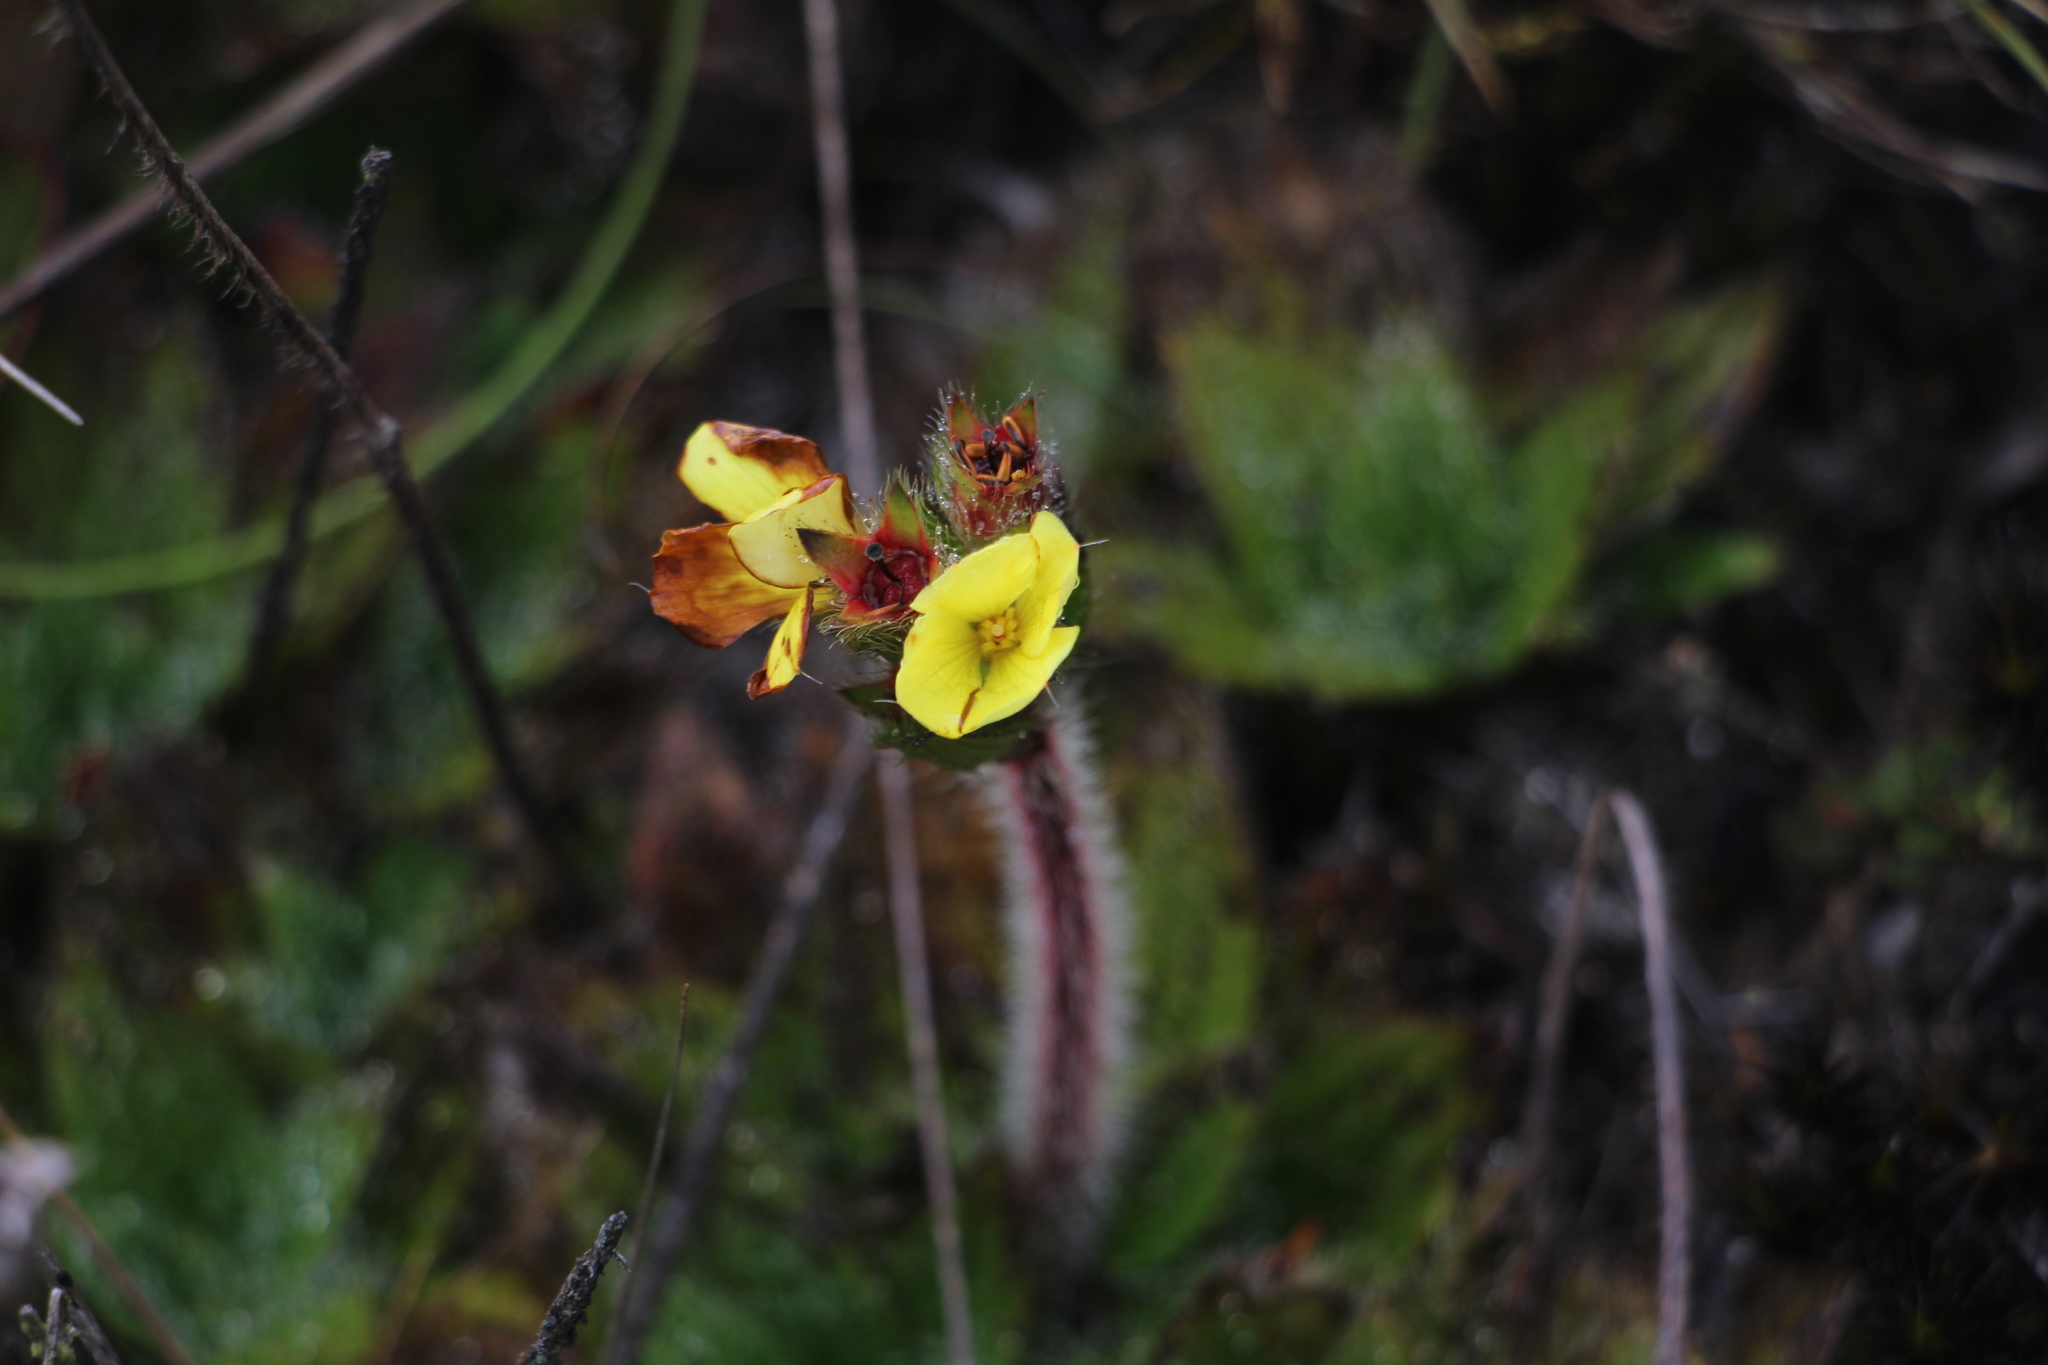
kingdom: Plantae
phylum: Tracheophyta
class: Magnoliopsida
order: Myrtales
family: Melastomataceae
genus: Castratella
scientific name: Castratella piloselloides
